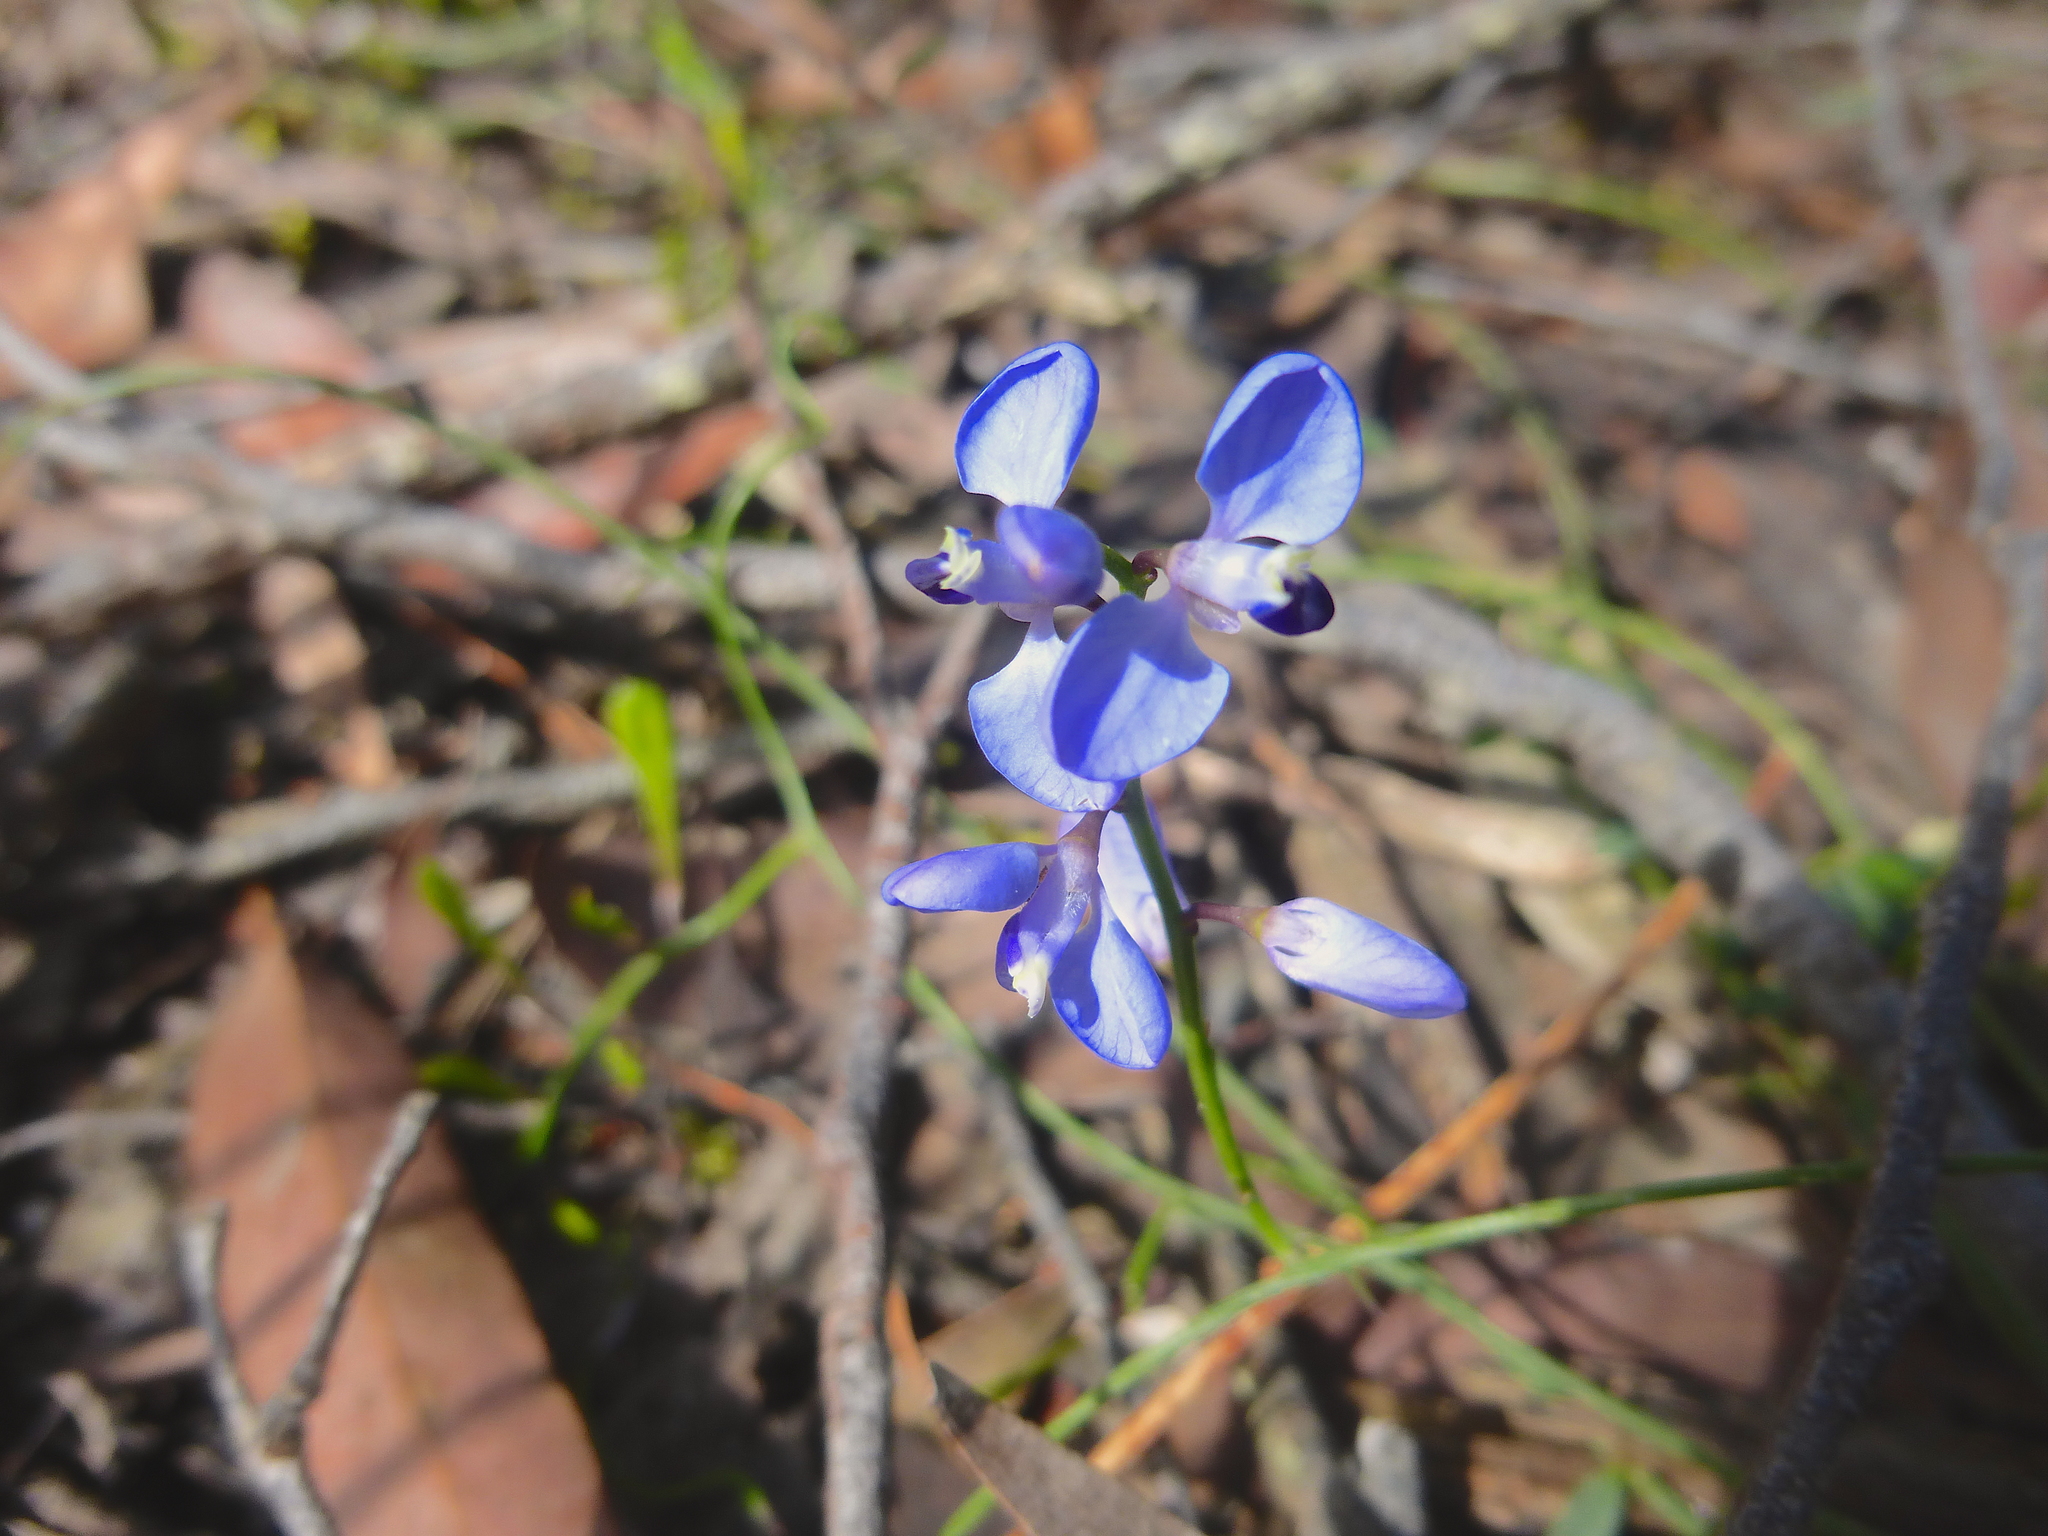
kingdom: Plantae
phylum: Tracheophyta
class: Magnoliopsida
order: Fabales
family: Polygalaceae
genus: Comesperma
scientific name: Comesperma volubile
